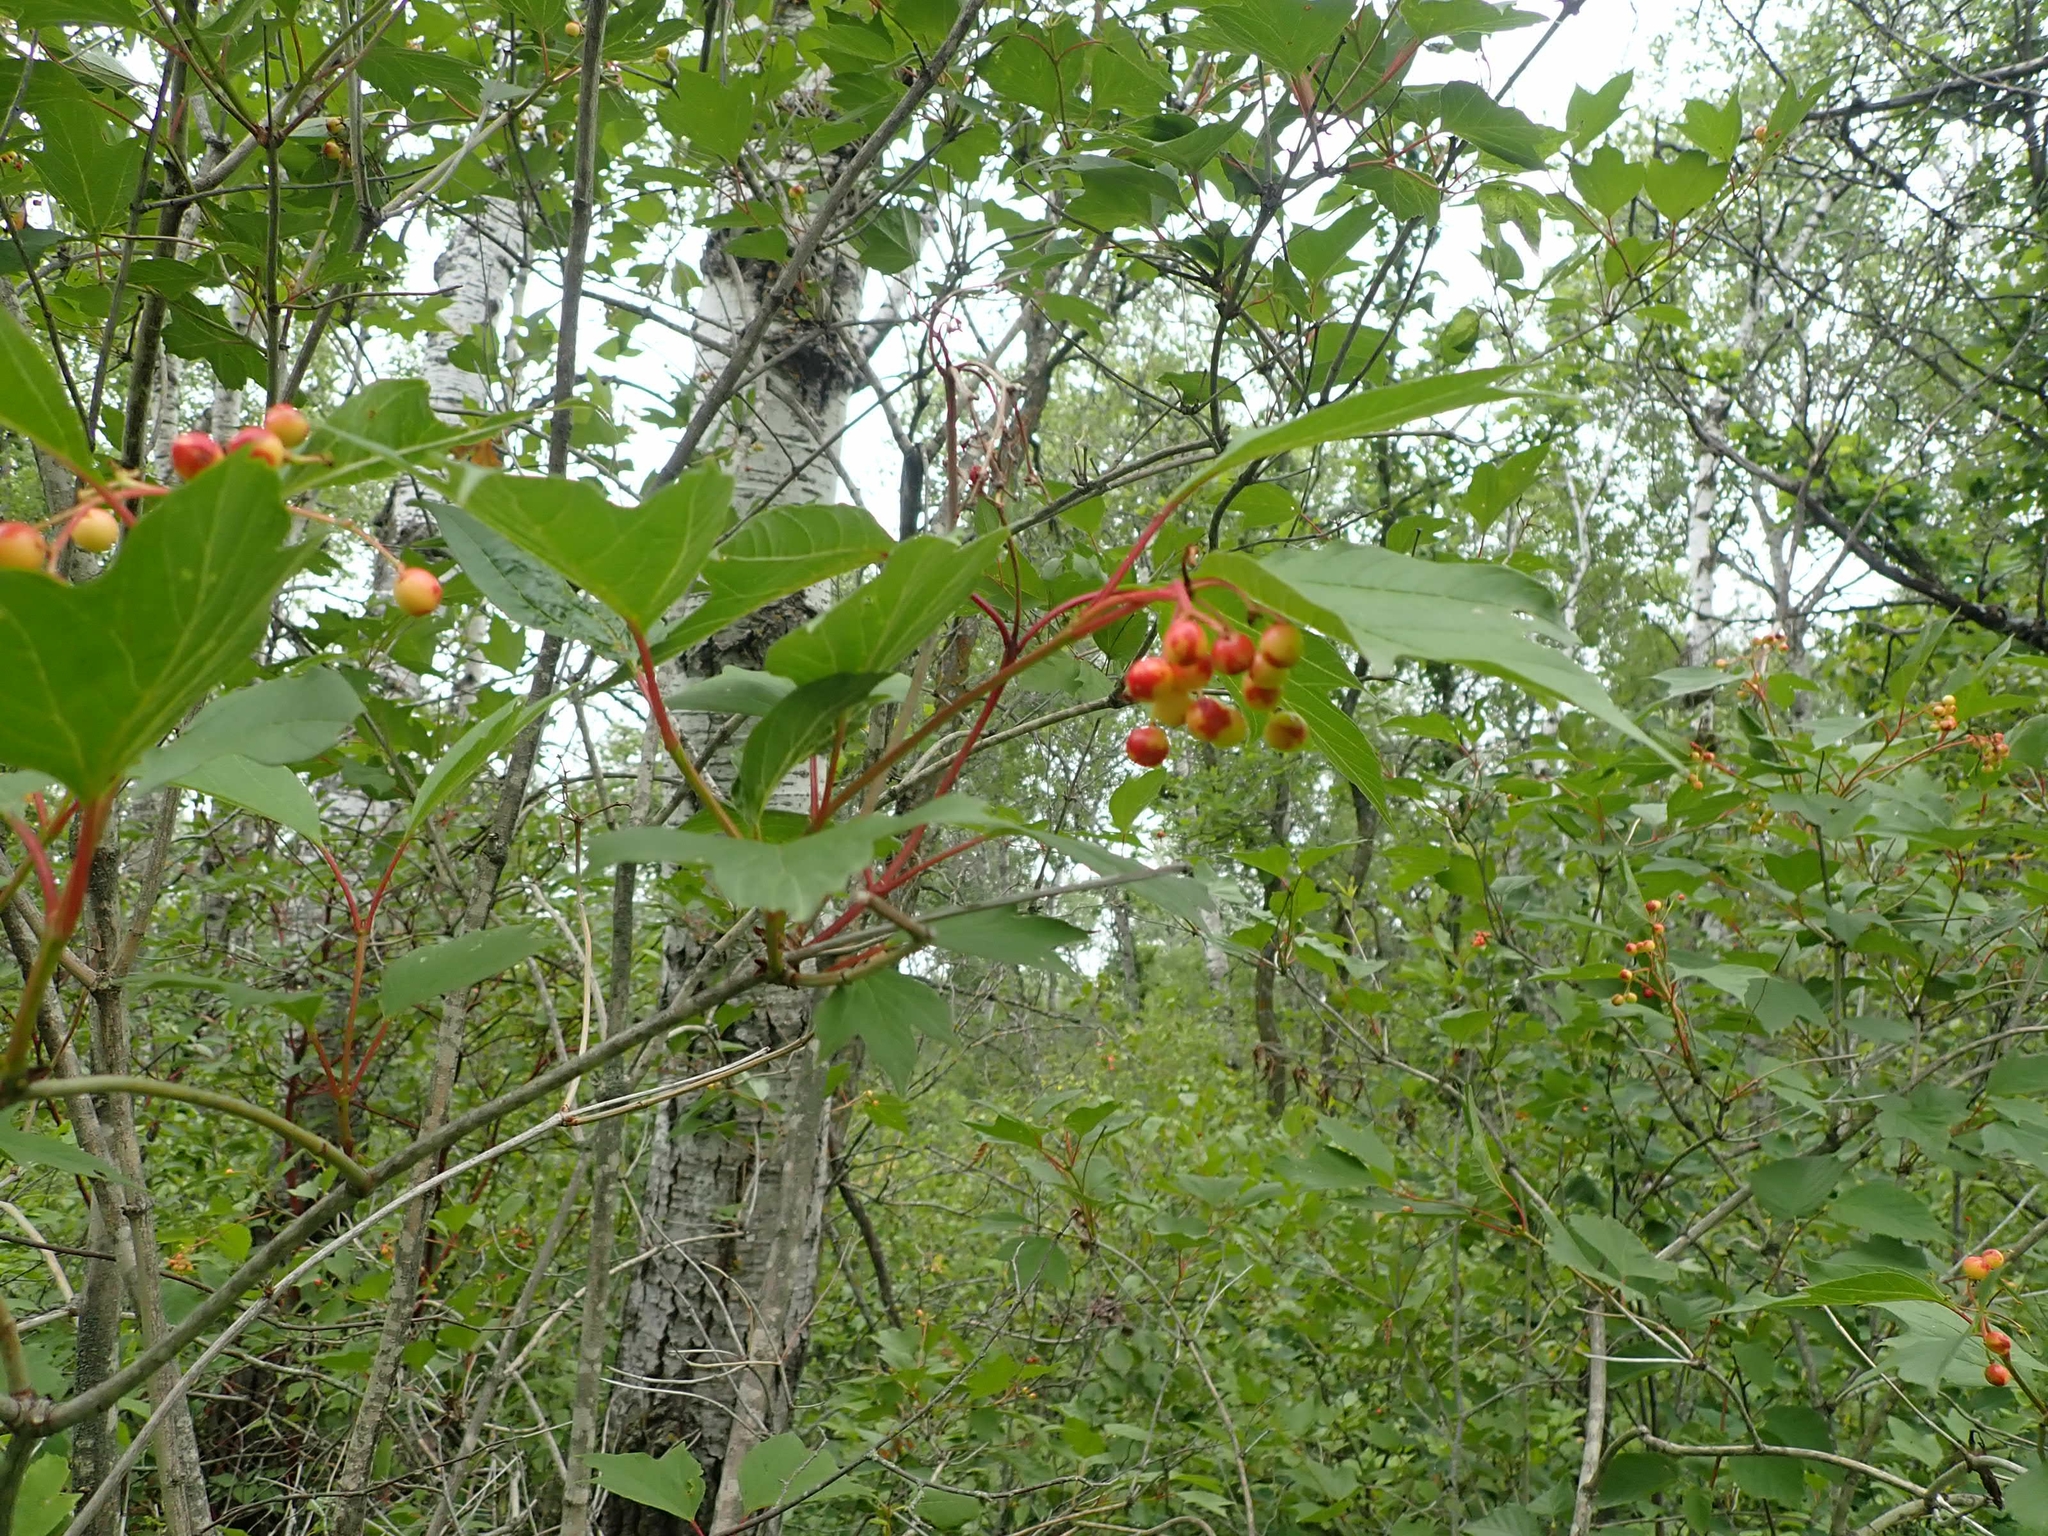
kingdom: Plantae
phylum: Tracheophyta
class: Magnoliopsida
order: Dipsacales
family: Viburnaceae
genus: Viburnum
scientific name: Viburnum trilobum
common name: American cranberrybush
